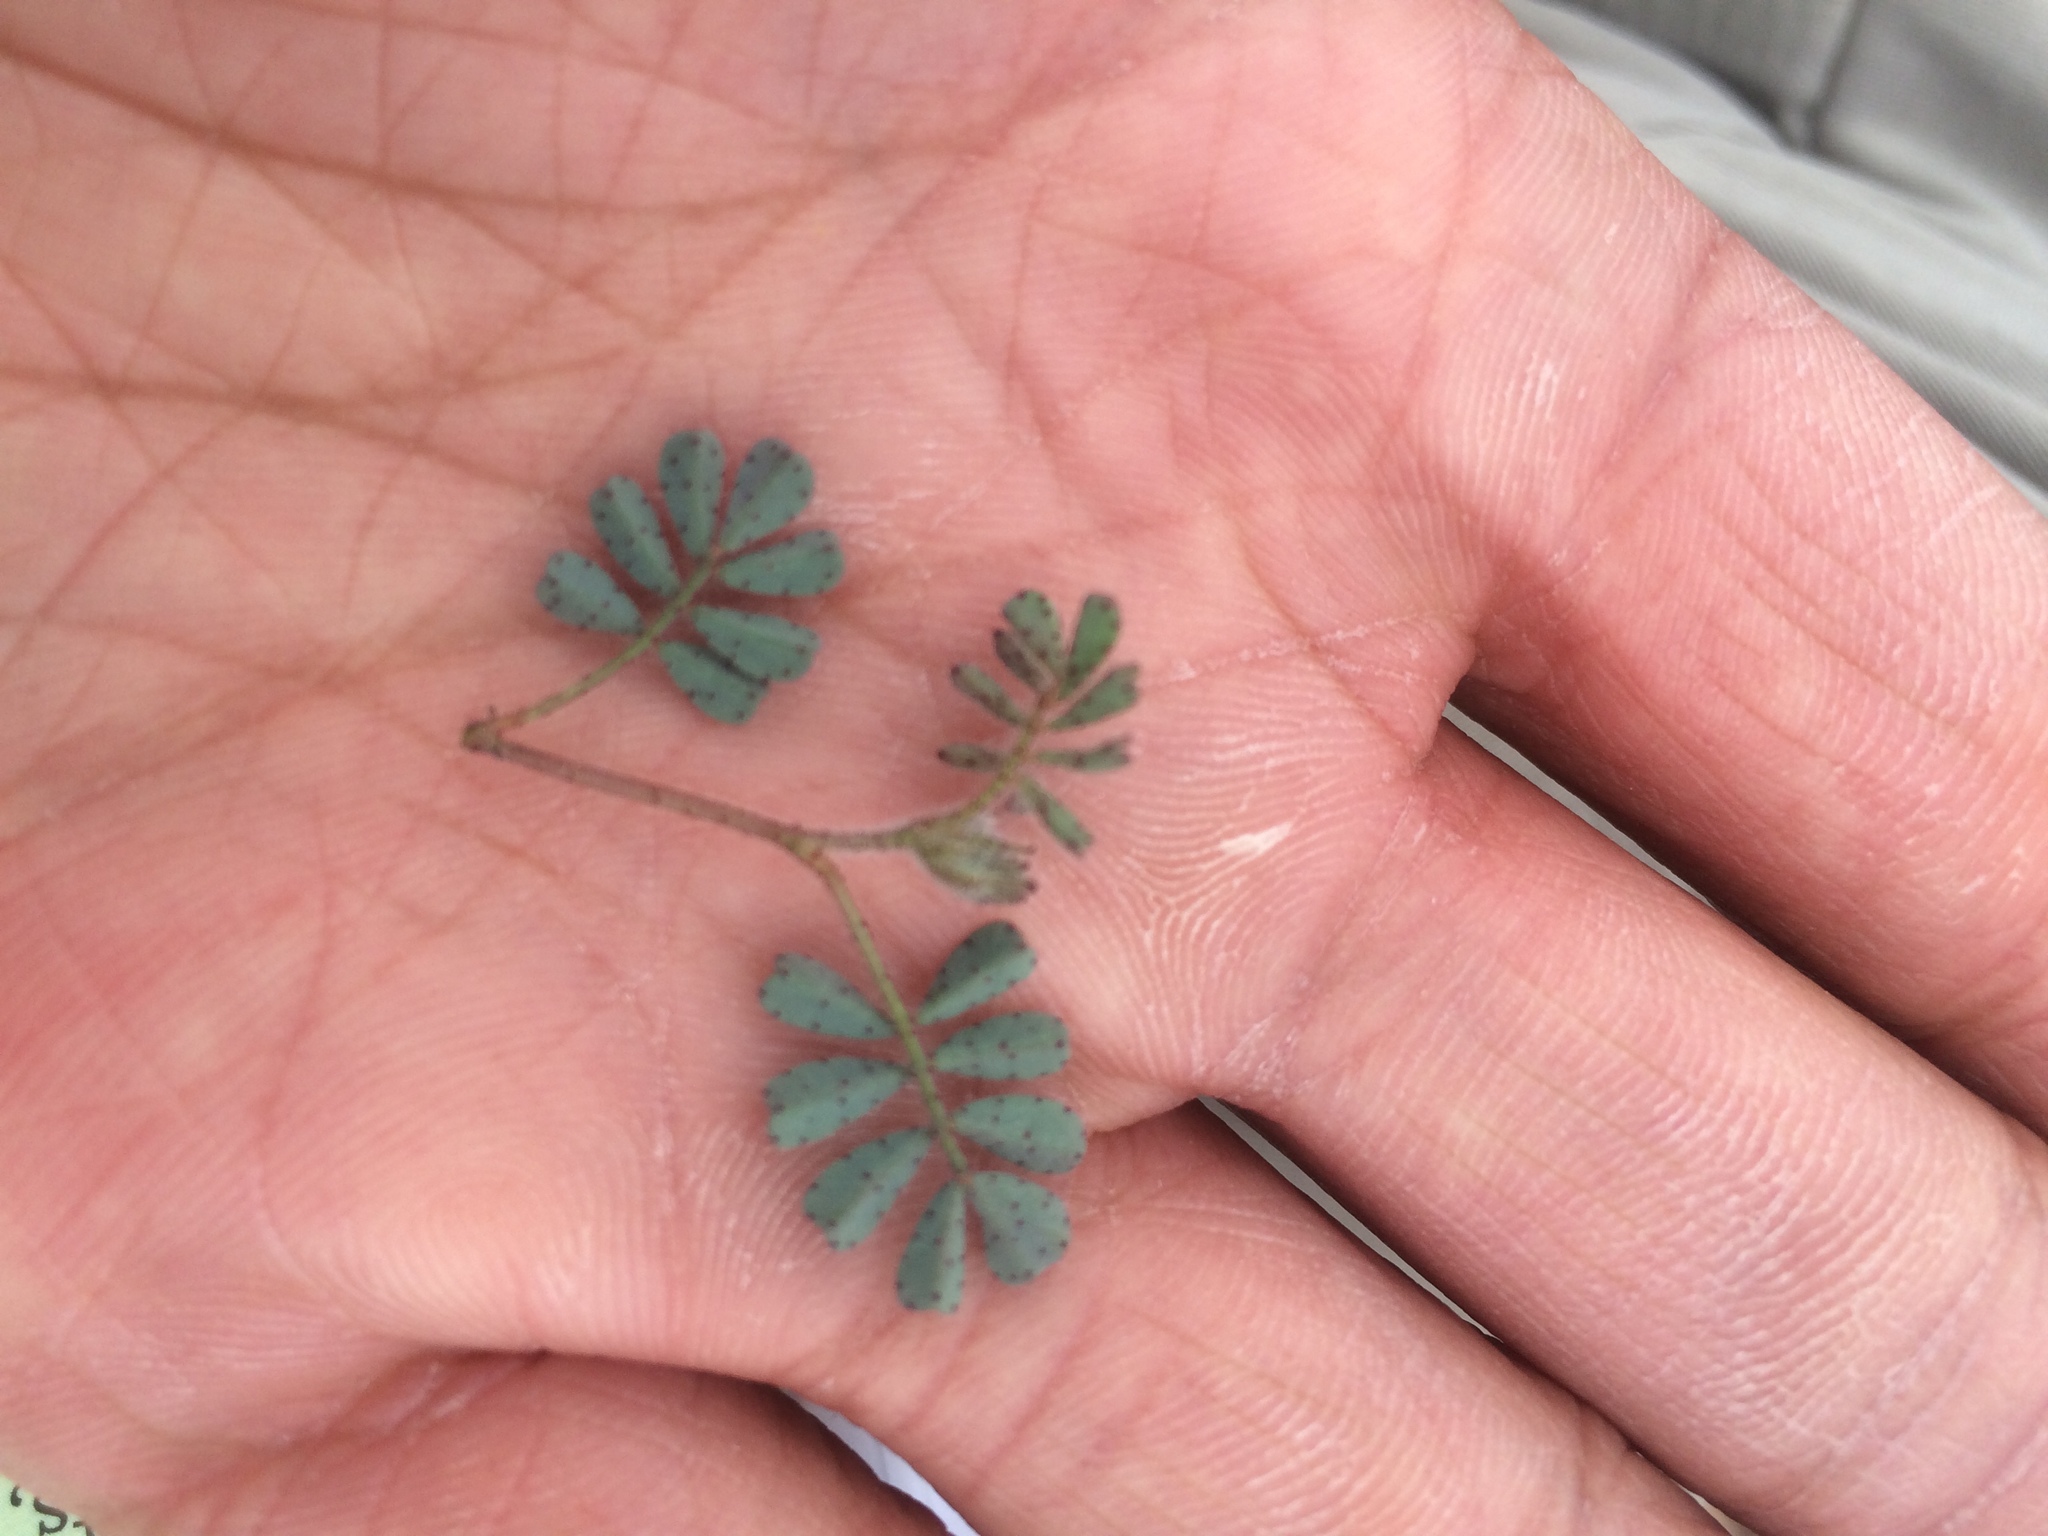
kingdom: Plantae
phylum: Tracheophyta
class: Magnoliopsida
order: Fabales
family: Fabaceae
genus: Dalea
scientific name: Dalea mollis
